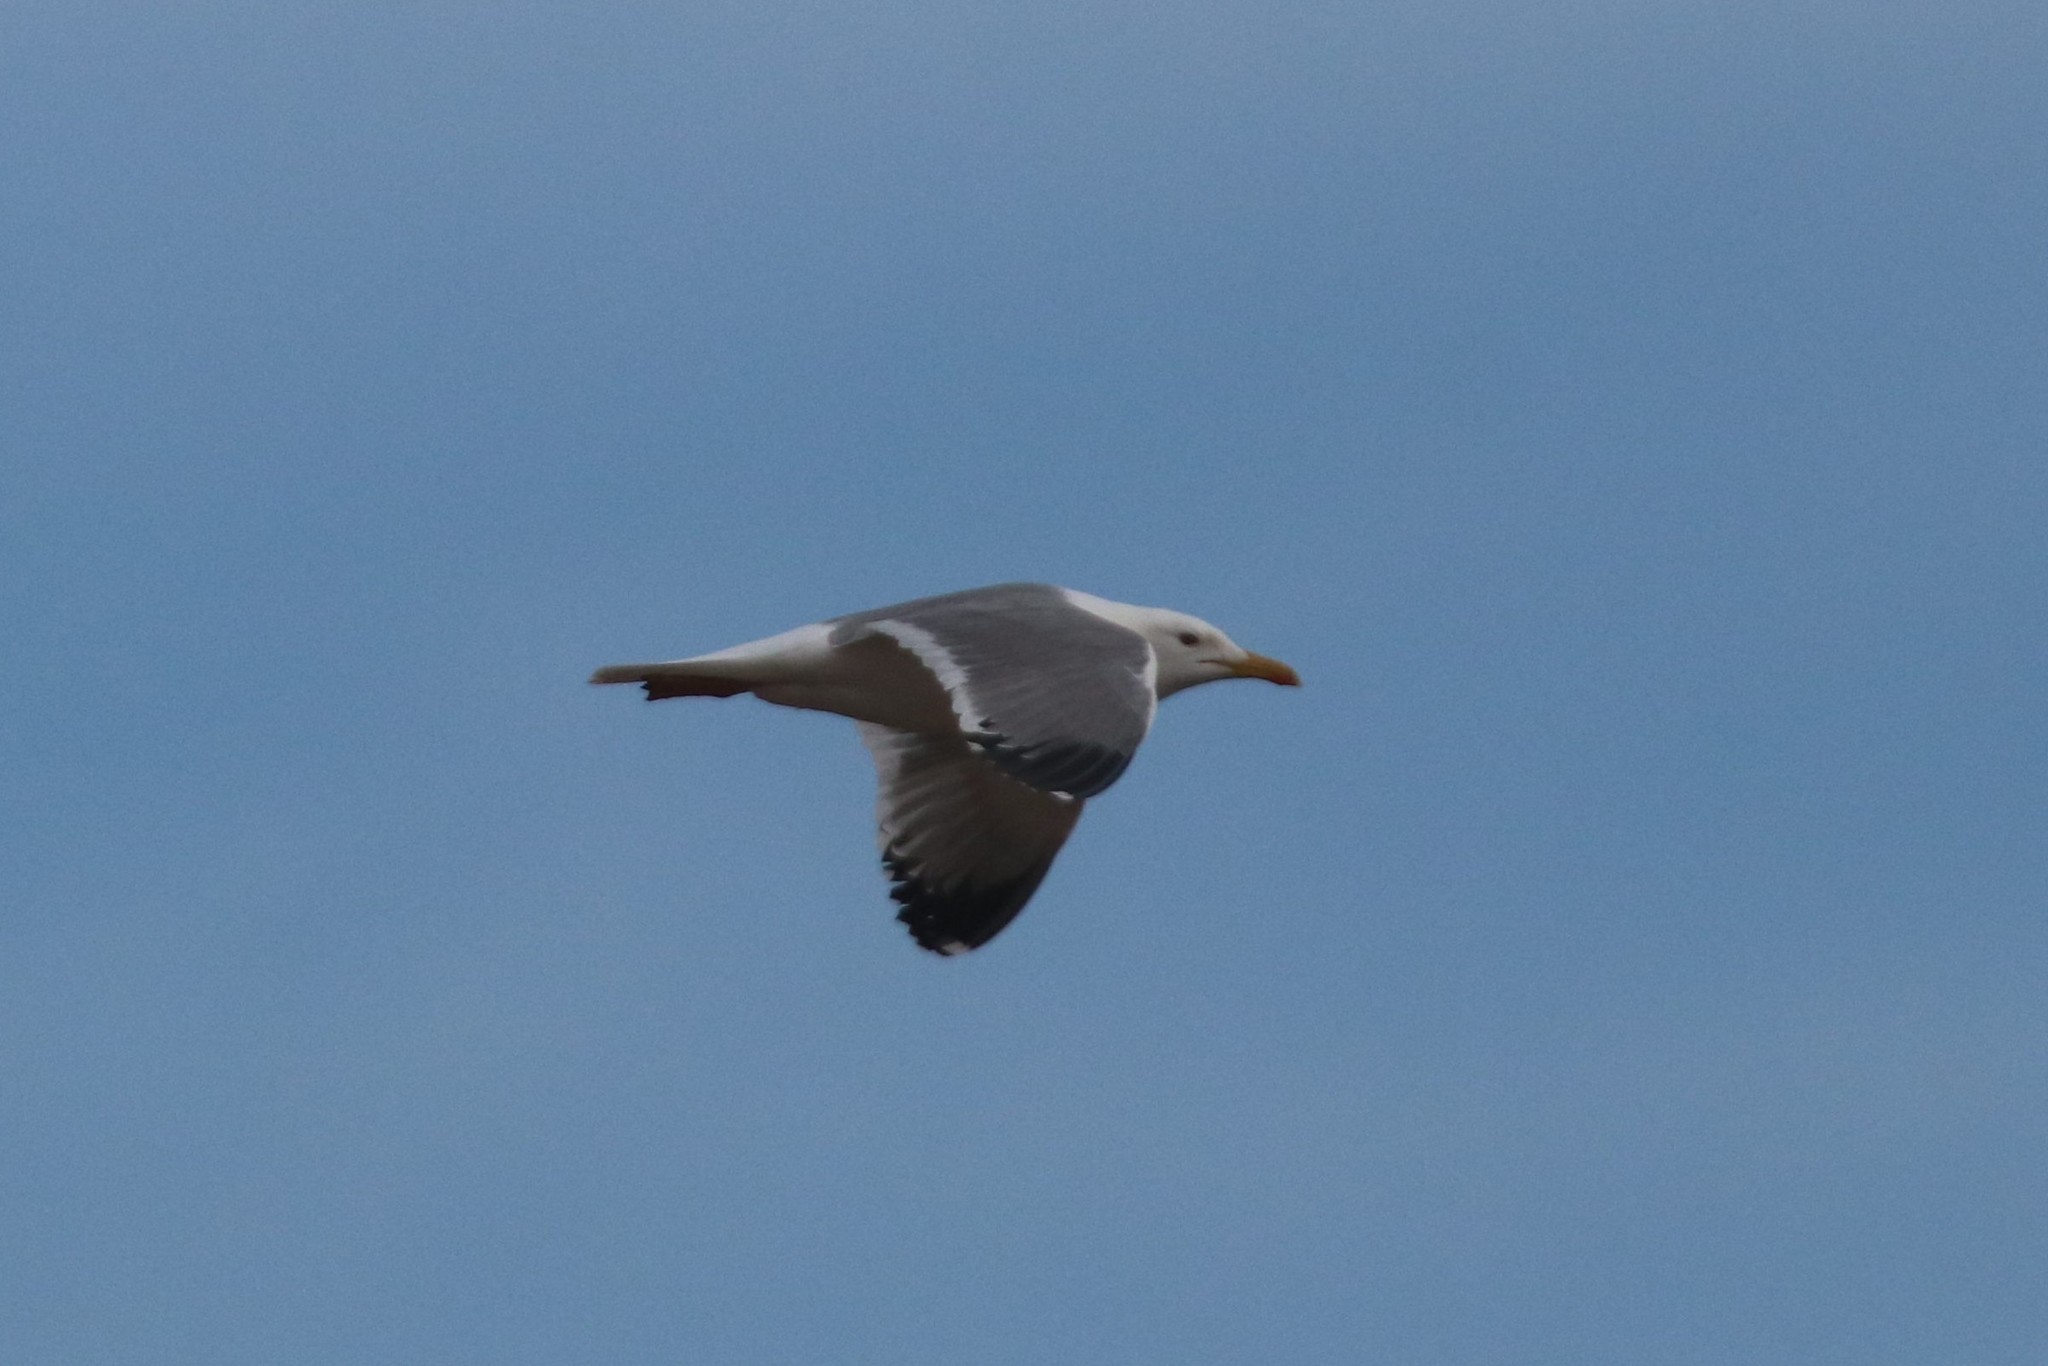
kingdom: Animalia
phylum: Chordata
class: Aves
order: Charadriiformes
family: Laridae
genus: Larus
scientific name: Larus fuscus
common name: Lesser black-backed gull
